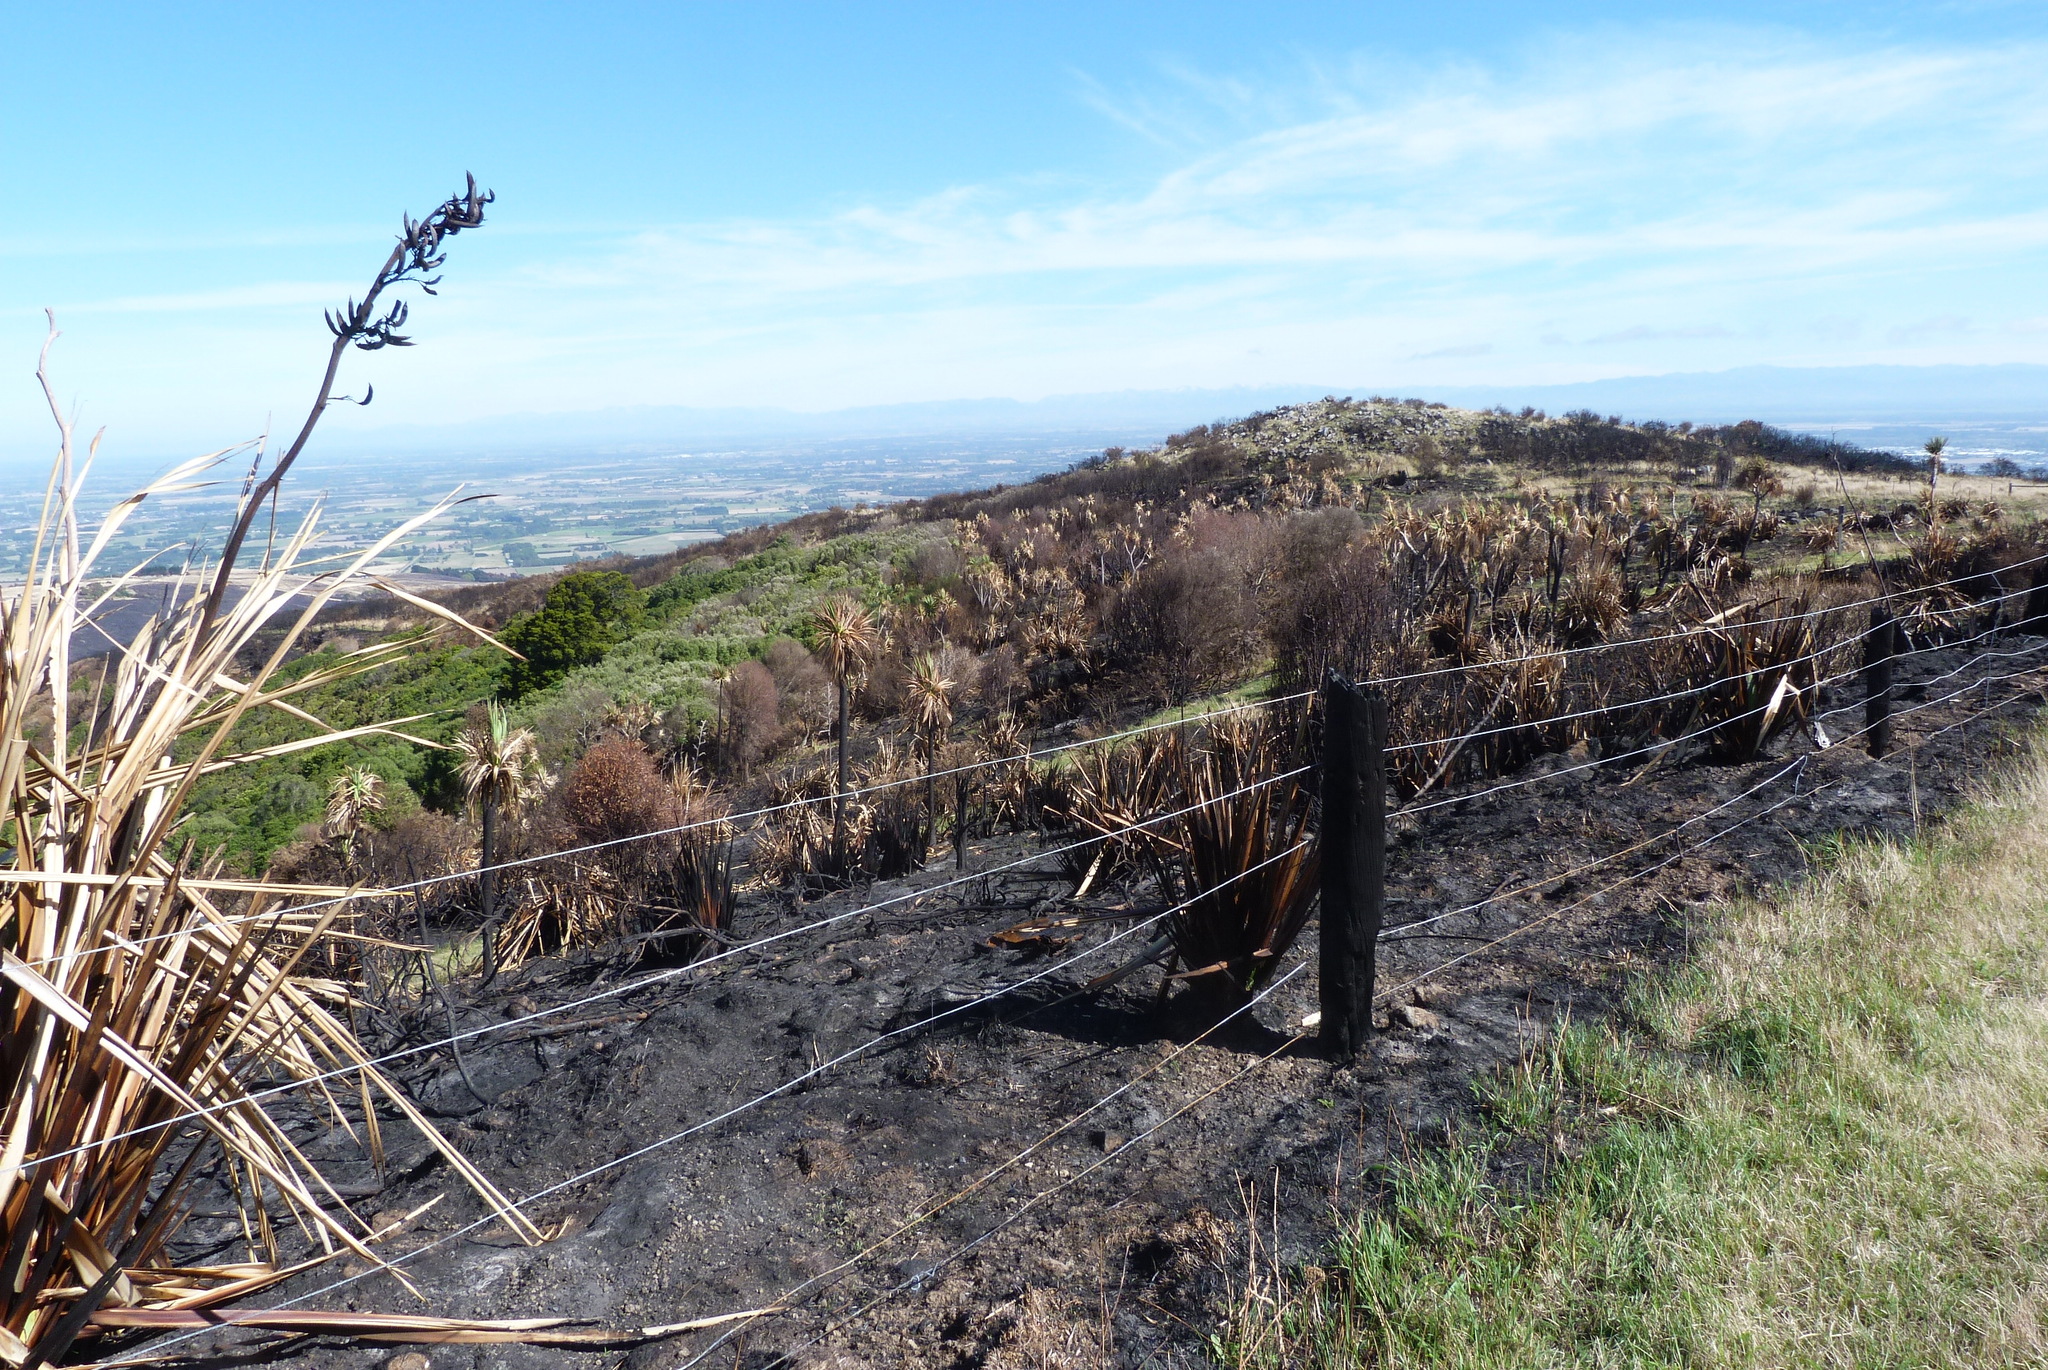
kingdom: Plantae
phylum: Tracheophyta
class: Liliopsida
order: Asparagales
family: Asparagaceae
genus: Cordyline
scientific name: Cordyline australis
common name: Cabbage-palm
